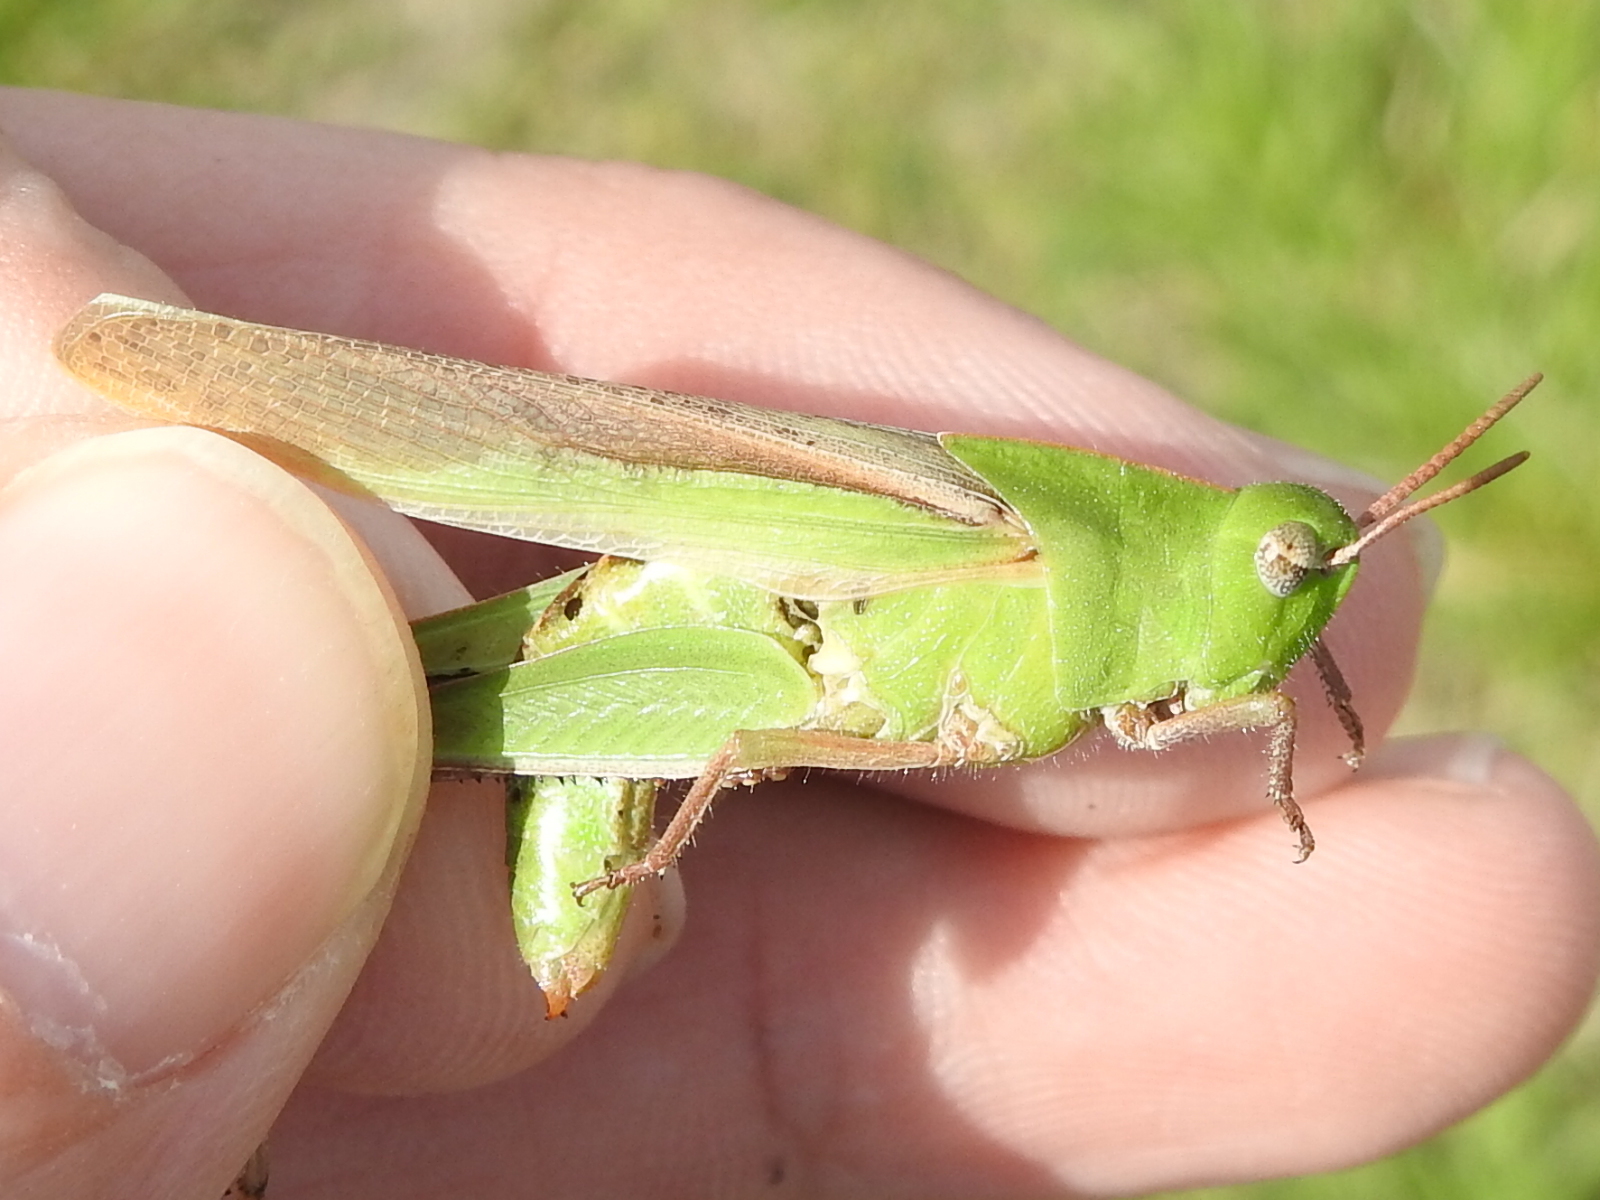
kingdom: Animalia
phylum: Arthropoda
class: Insecta
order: Orthoptera
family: Acrididae
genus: Chortophaga
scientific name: Chortophaga viridifasciata
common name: Green-striped grasshopper
